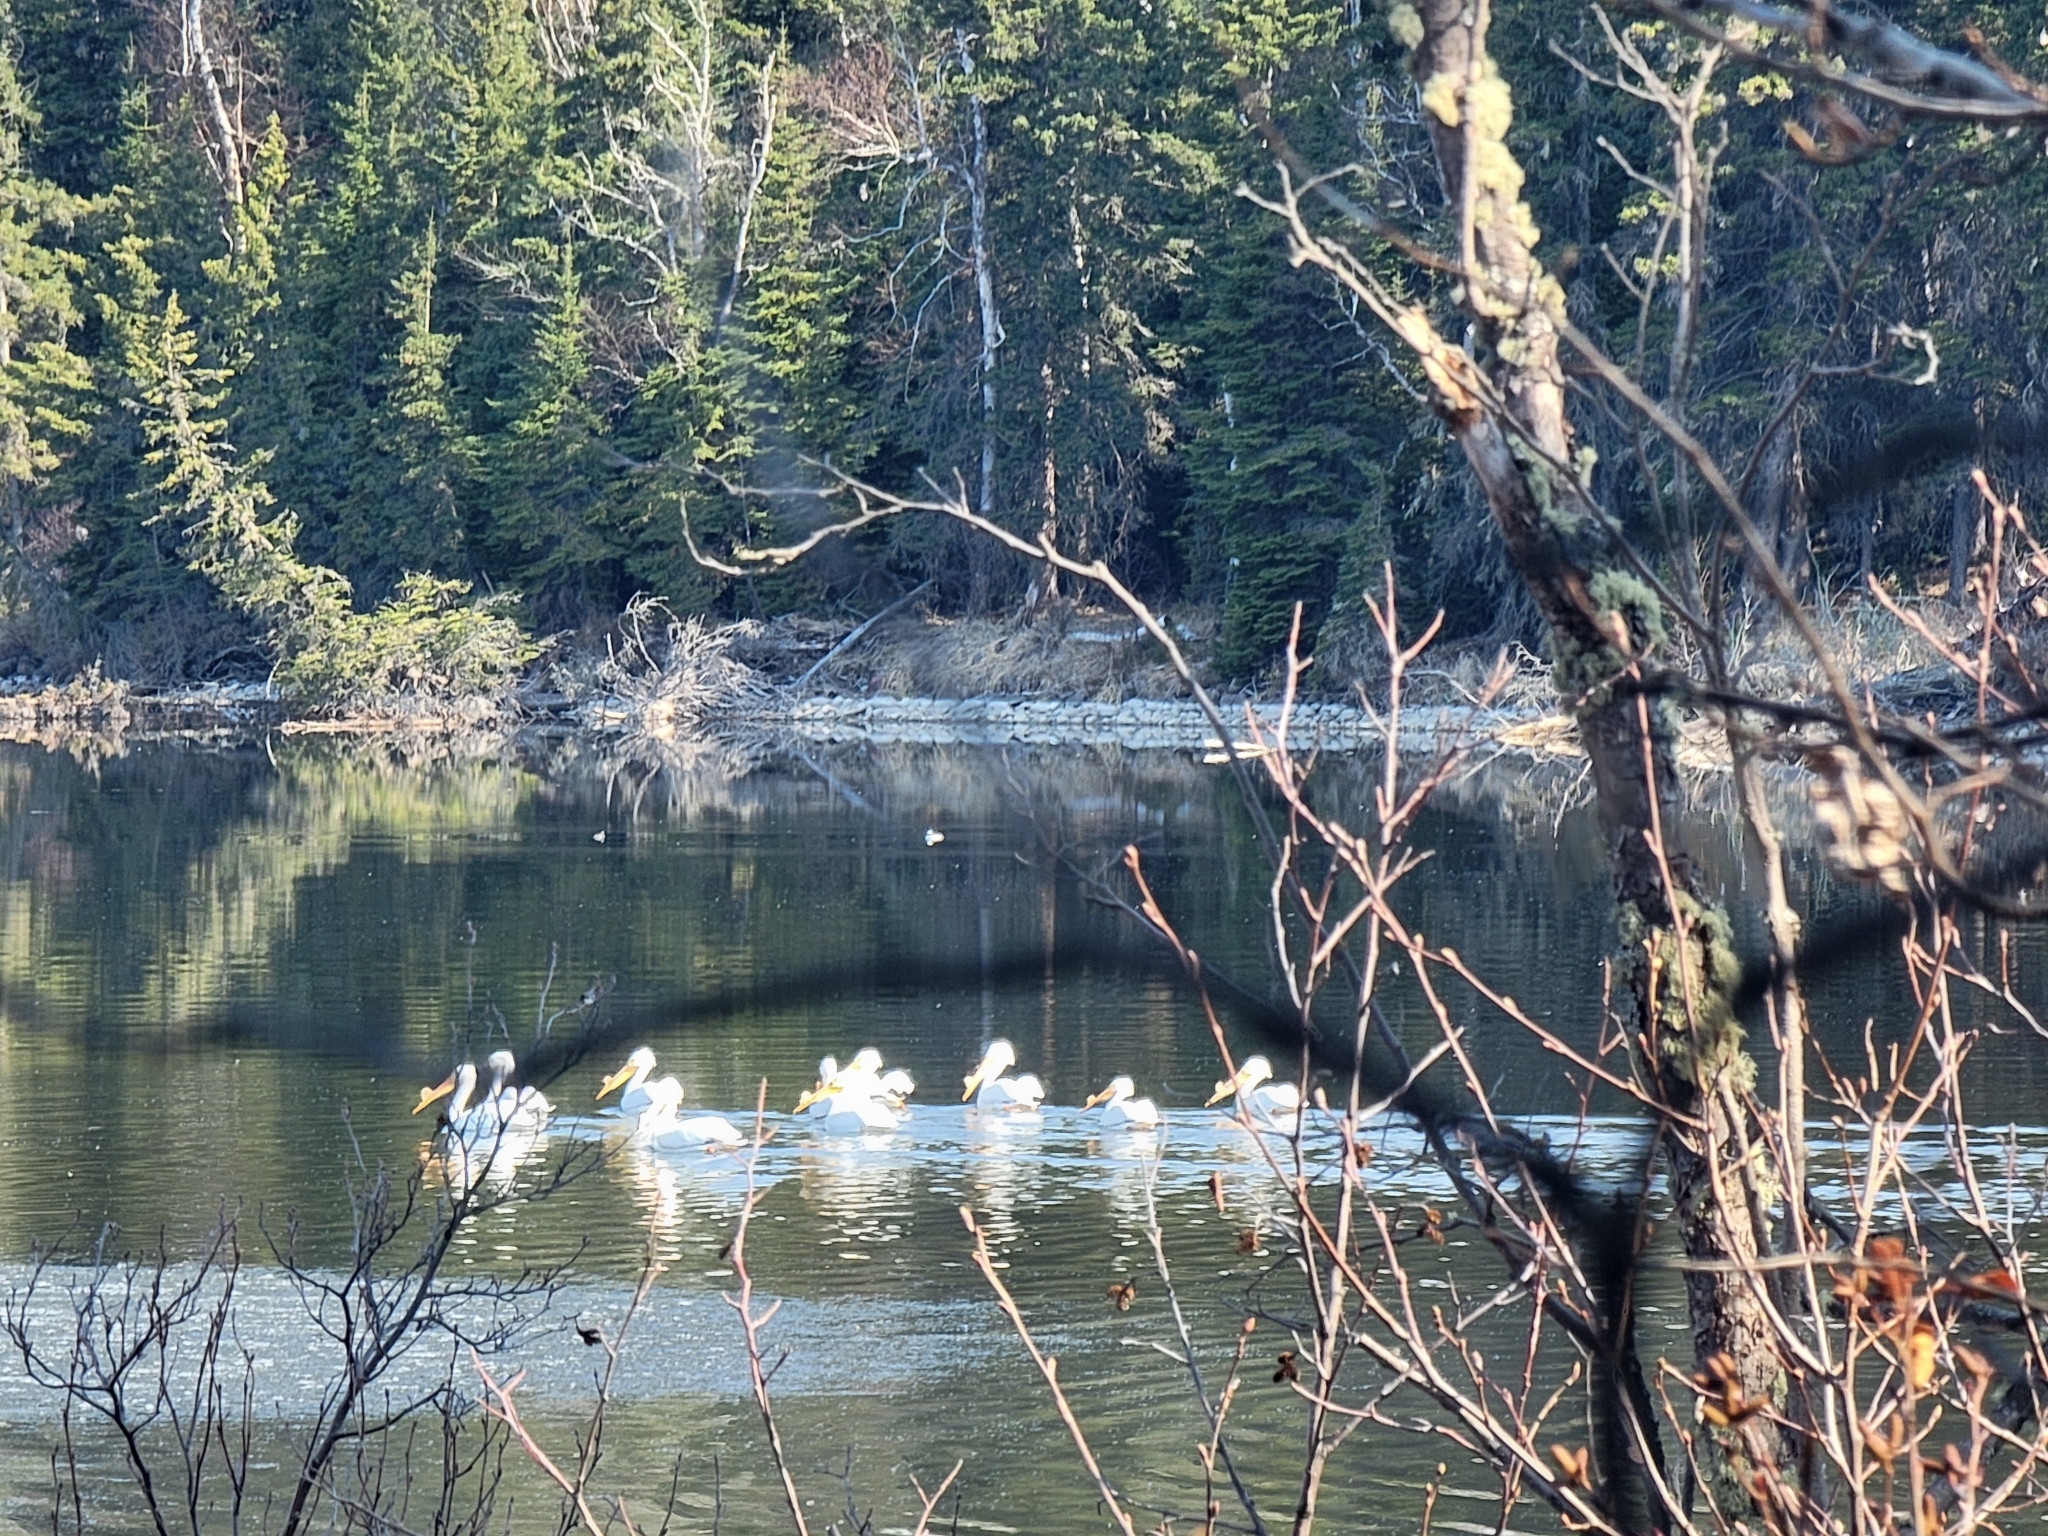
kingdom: Animalia
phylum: Chordata
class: Aves
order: Pelecaniformes
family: Pelecanidae
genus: Pelecanus
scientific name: Pelecanus erythrorhynchos
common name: American white pelican
